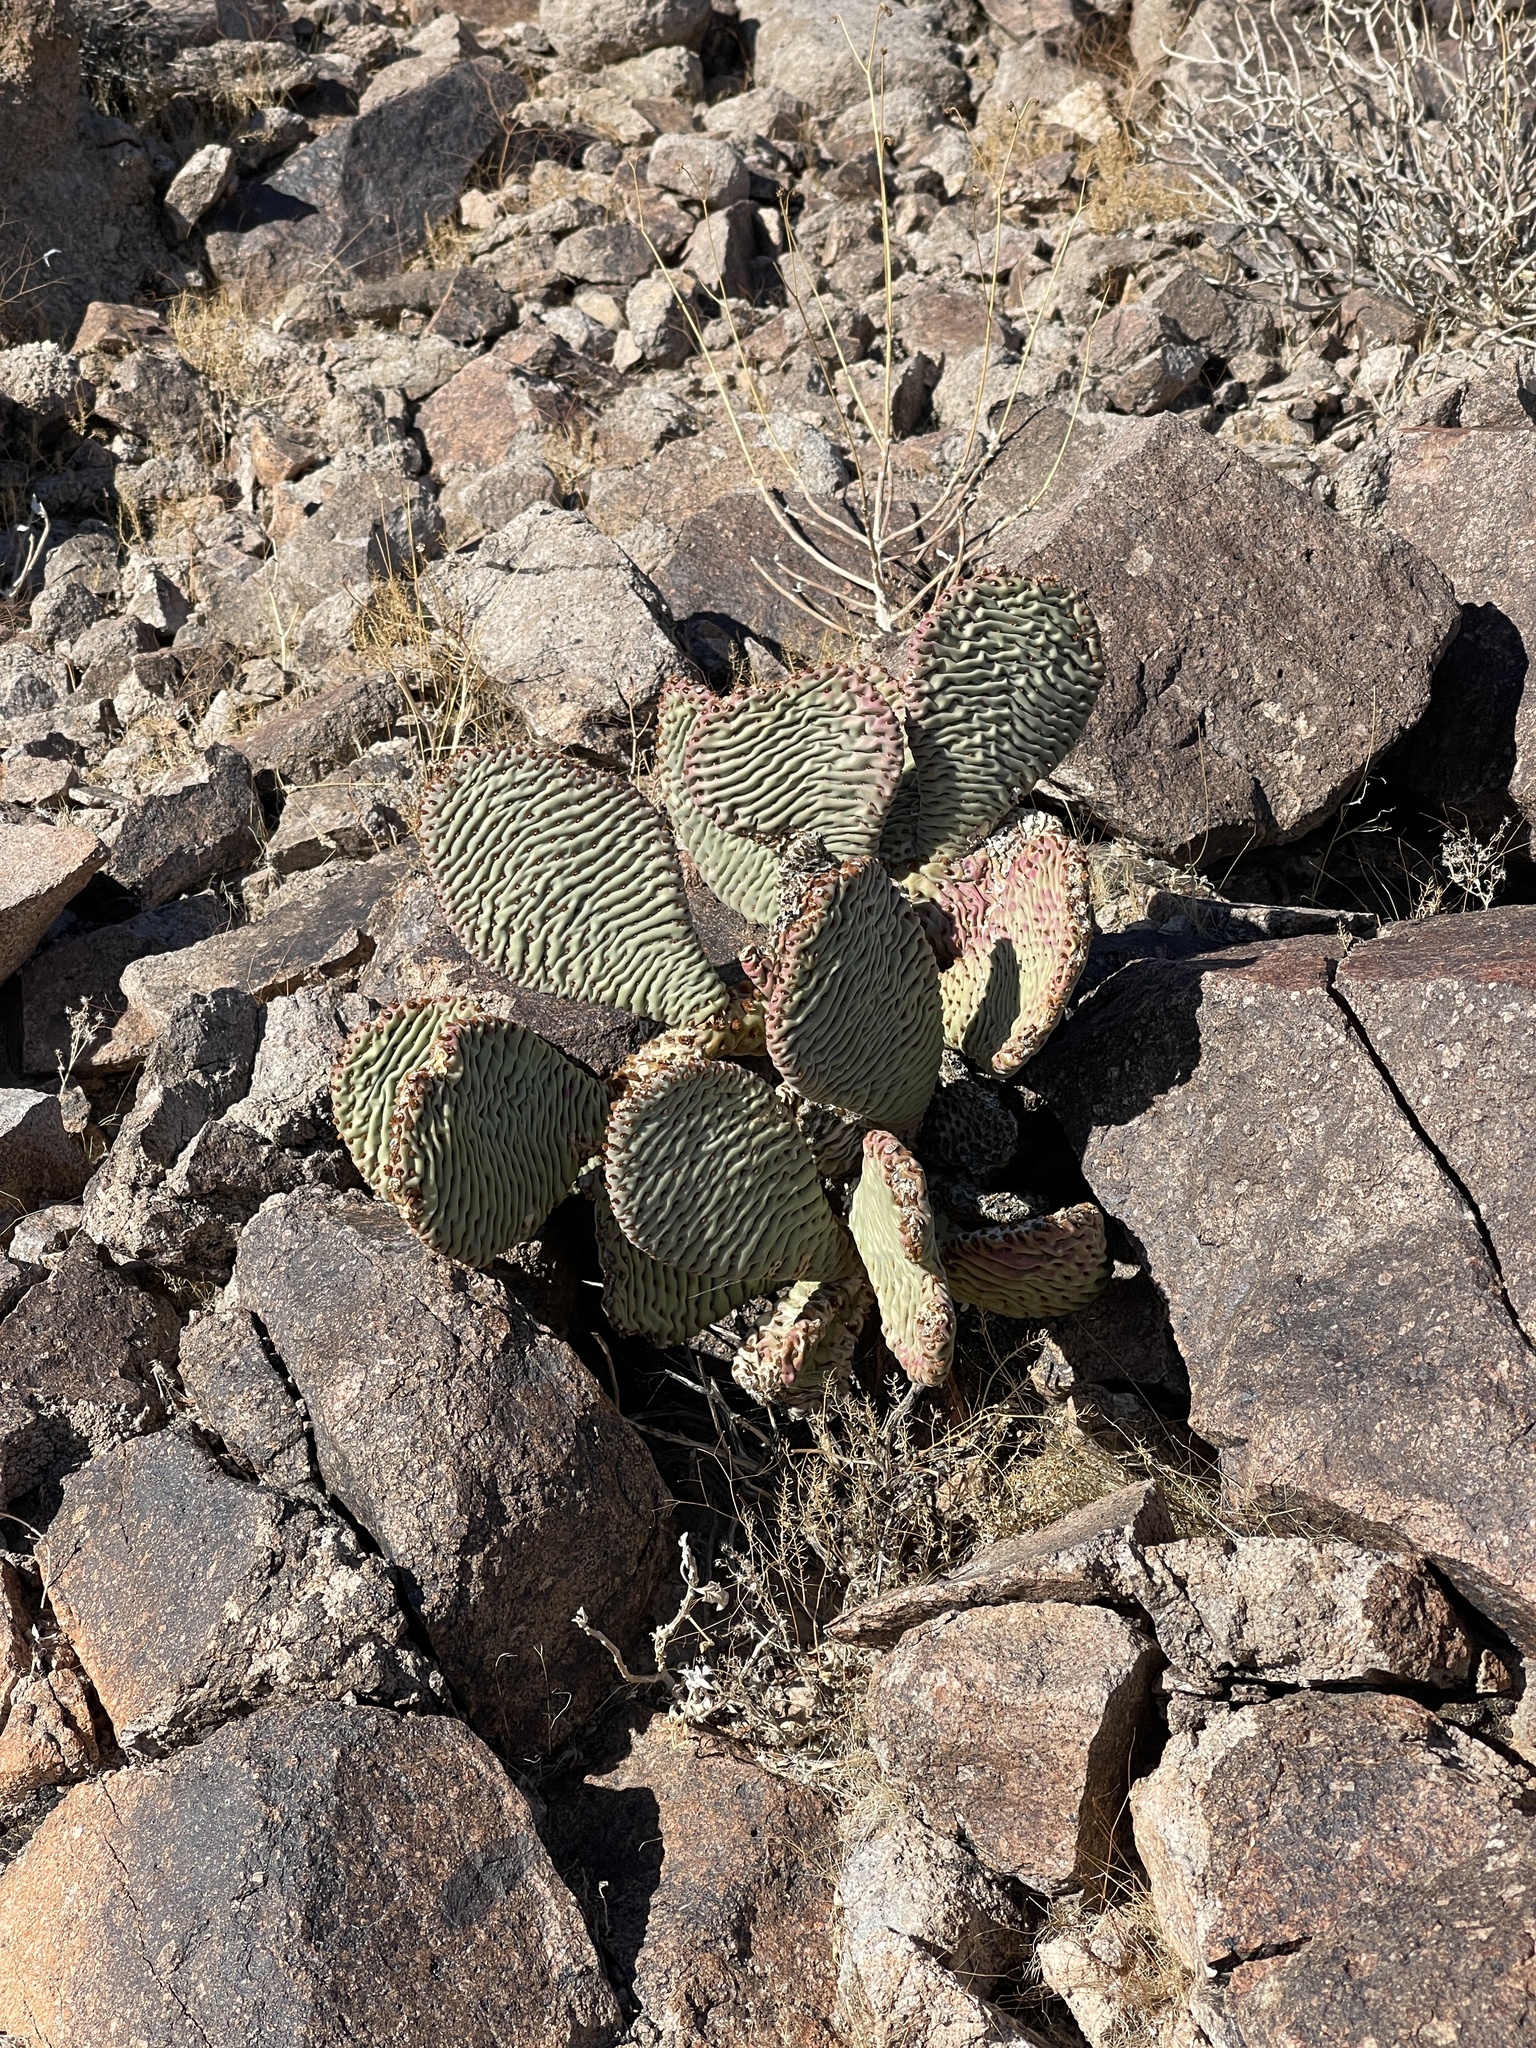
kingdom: Plantae
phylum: Tracheophyta
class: Magnoliopsida
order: Caryophyllales
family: Cactaceae
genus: Opuntia
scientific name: Opuntia basilaris
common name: Beavertail prickly-pear
